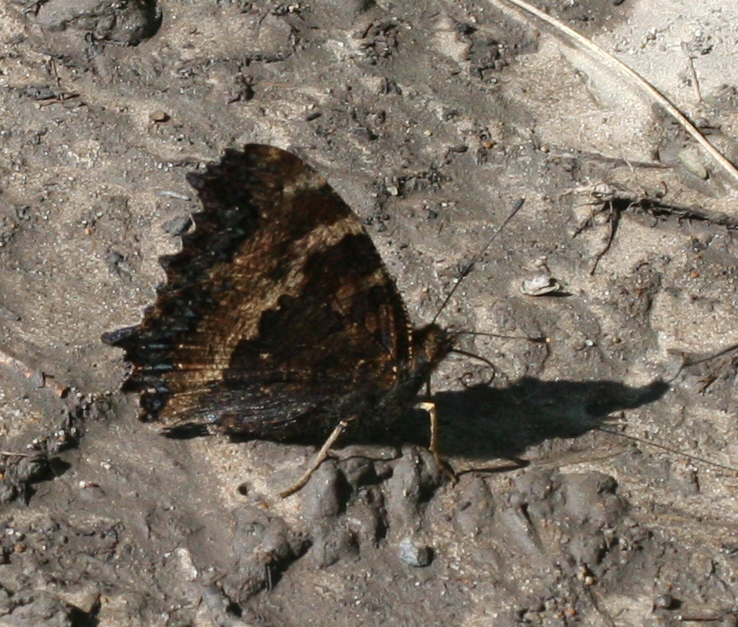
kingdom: Animalia
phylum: Arthropoda
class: Insecta
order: Lepidoptera
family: Nymphalidae
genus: Nymphalis
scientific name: Nymphalis xanthomelas
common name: Scarce tortoiseshell
